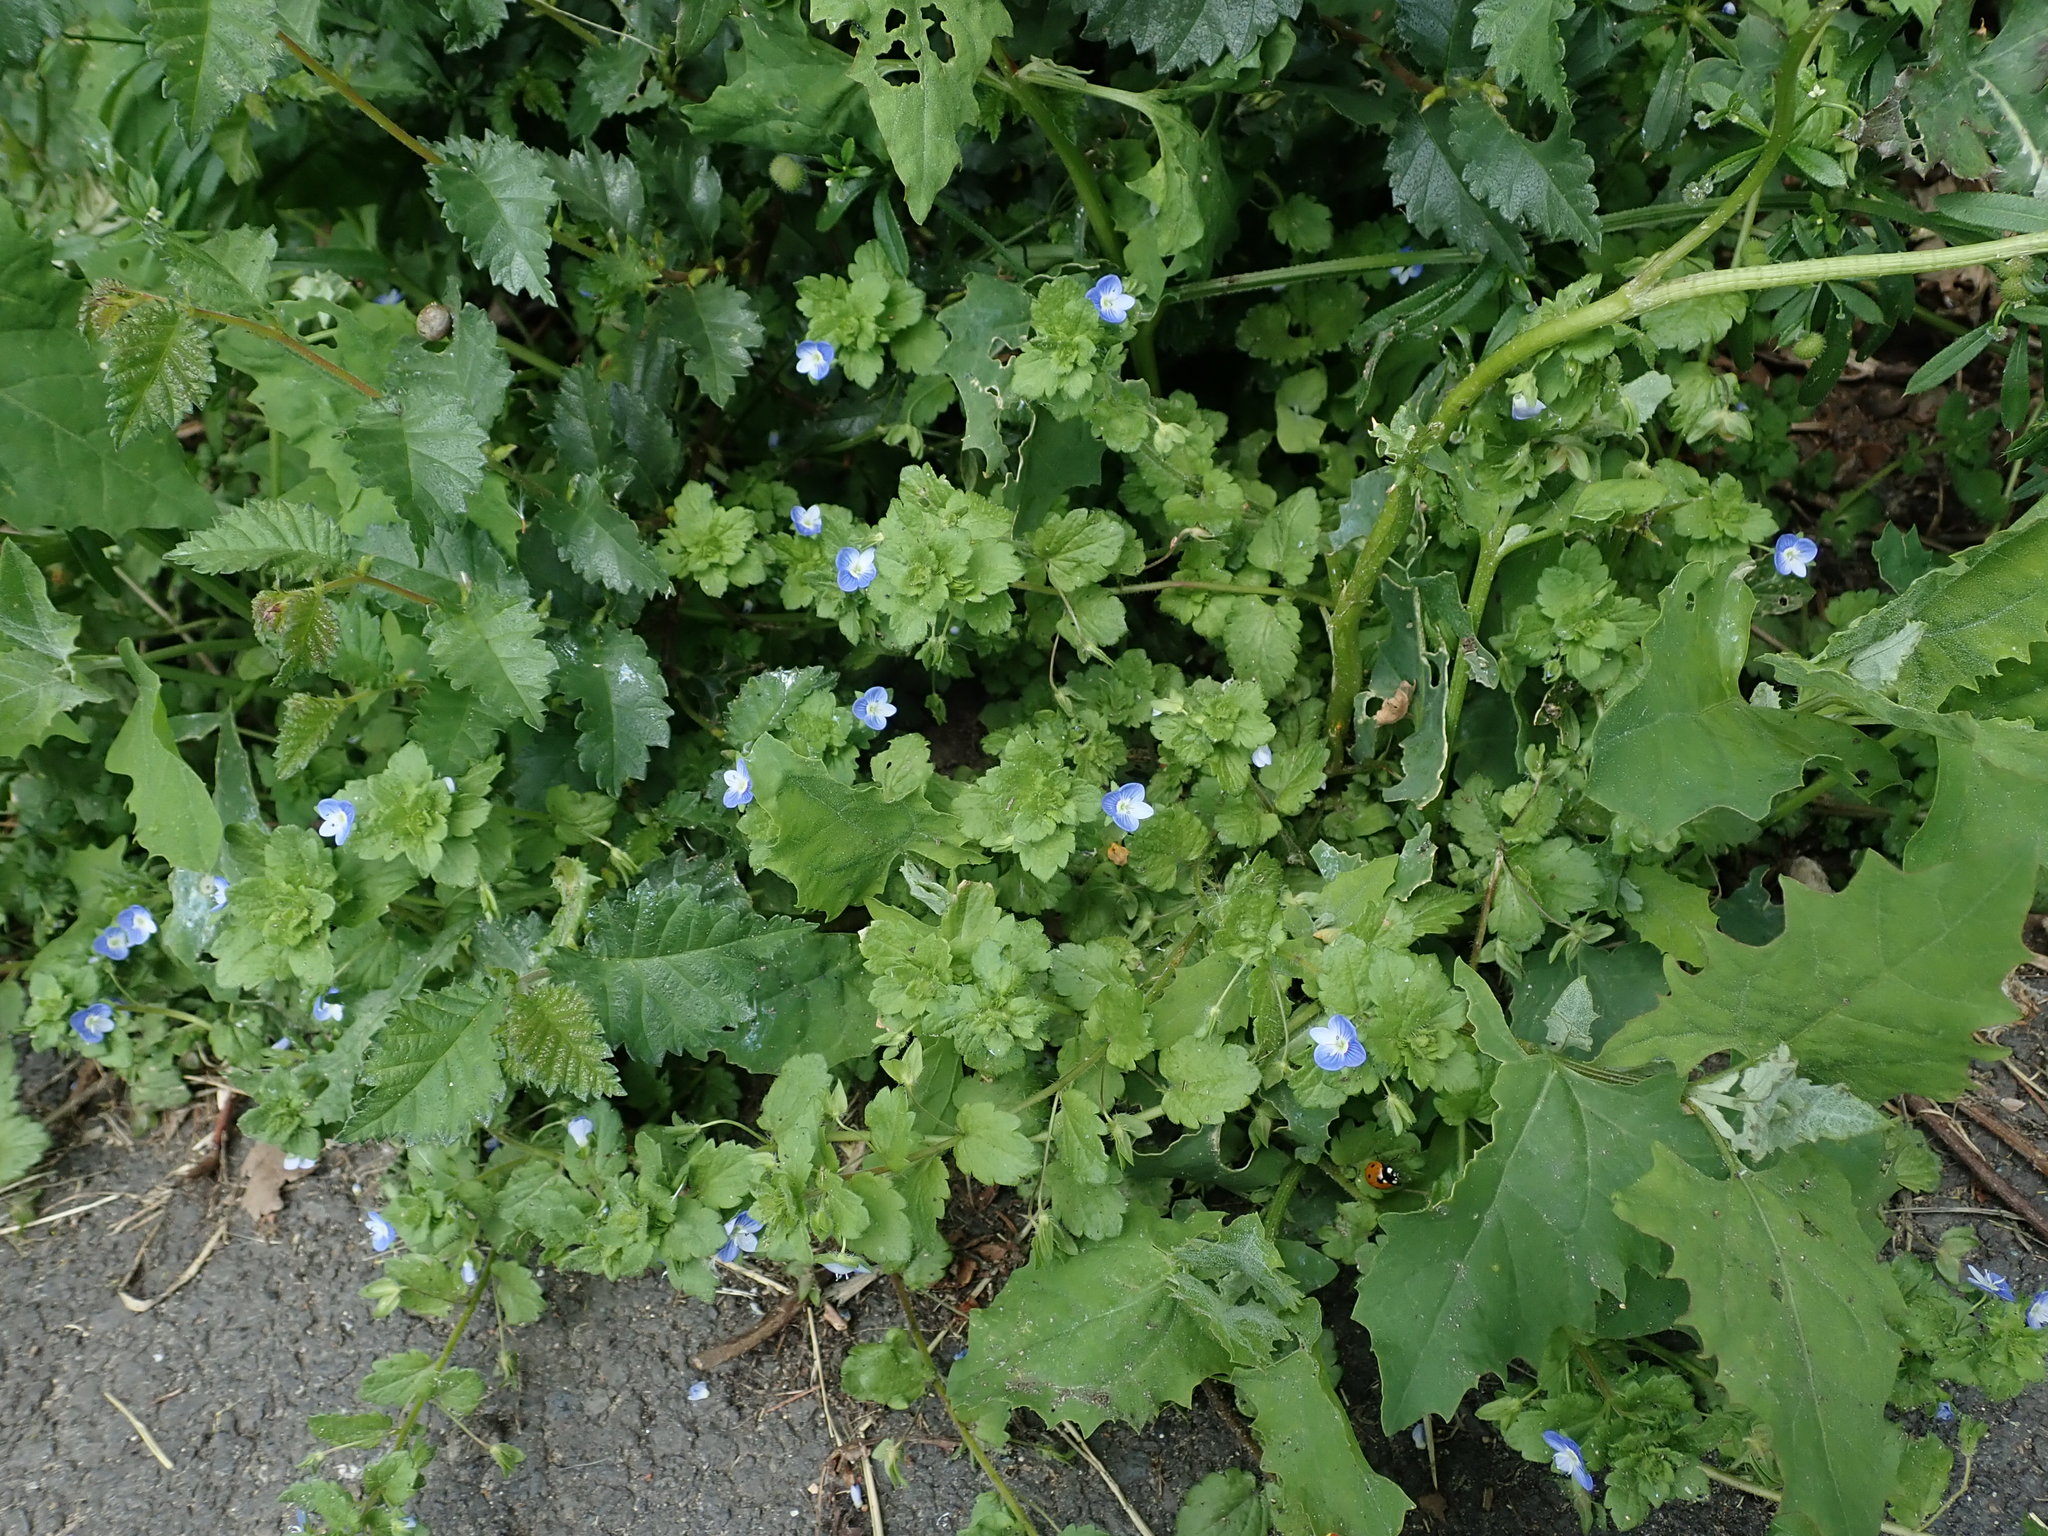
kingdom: Plantae
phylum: Tracheophyta
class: Magnoliopsida
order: Lamiales
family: Plantaginaceae
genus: Veronica
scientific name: Veronica persica
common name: Common field-speedwell
